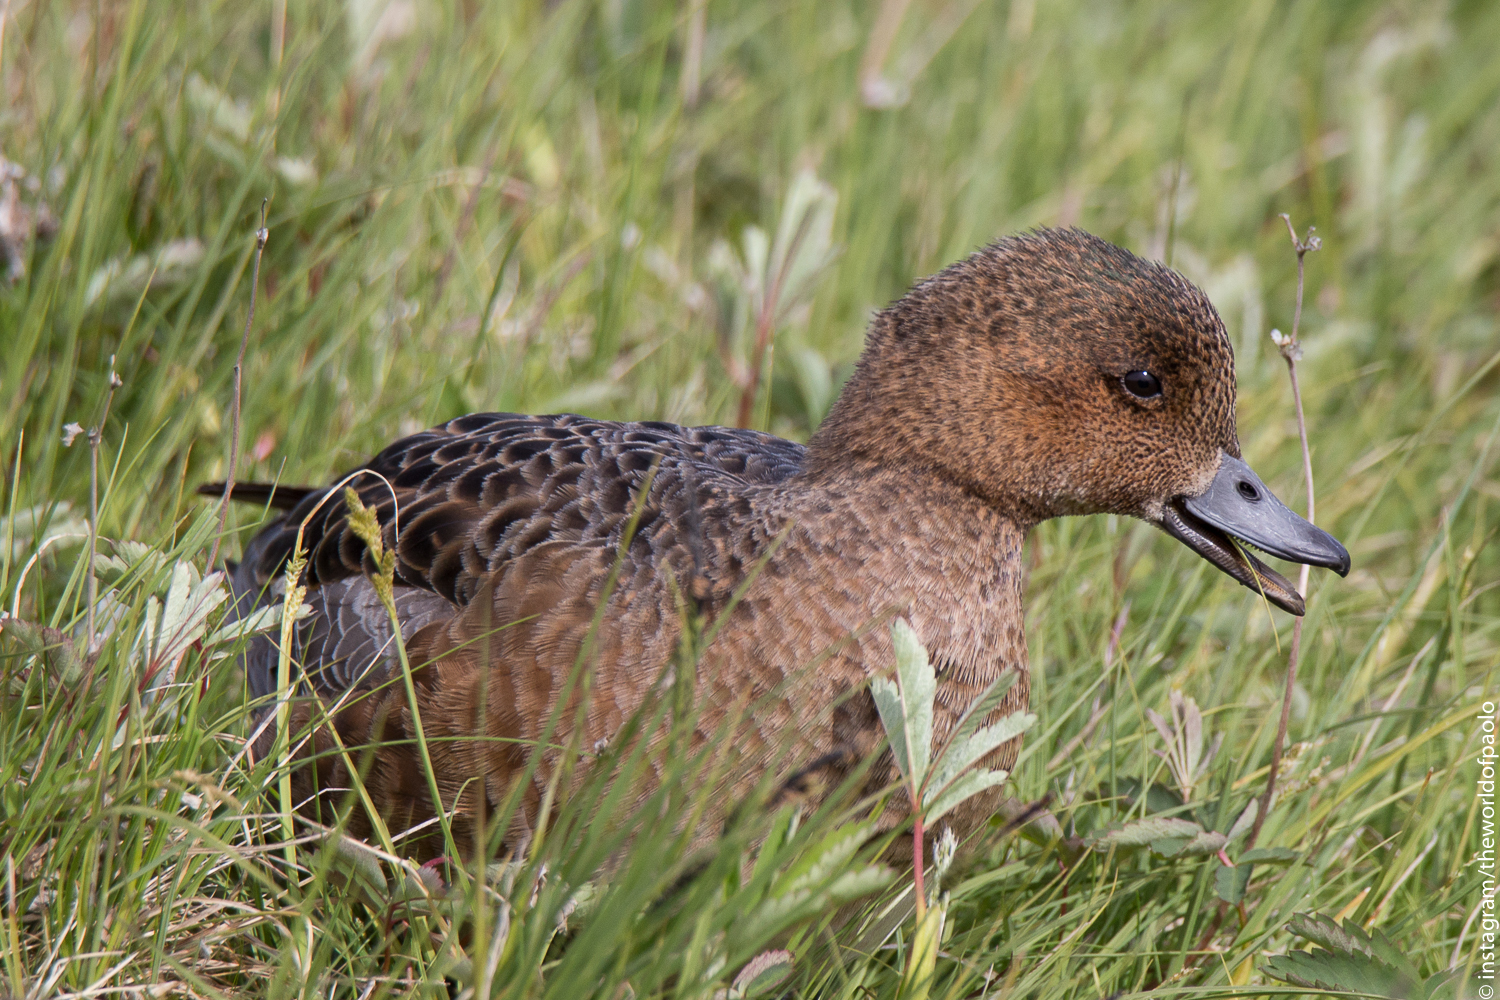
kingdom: Animalia
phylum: Chordata
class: Aves
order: Anseriformes
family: Anatidae
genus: Mareca
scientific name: Mareca penelope
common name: Eurasian wigeon
